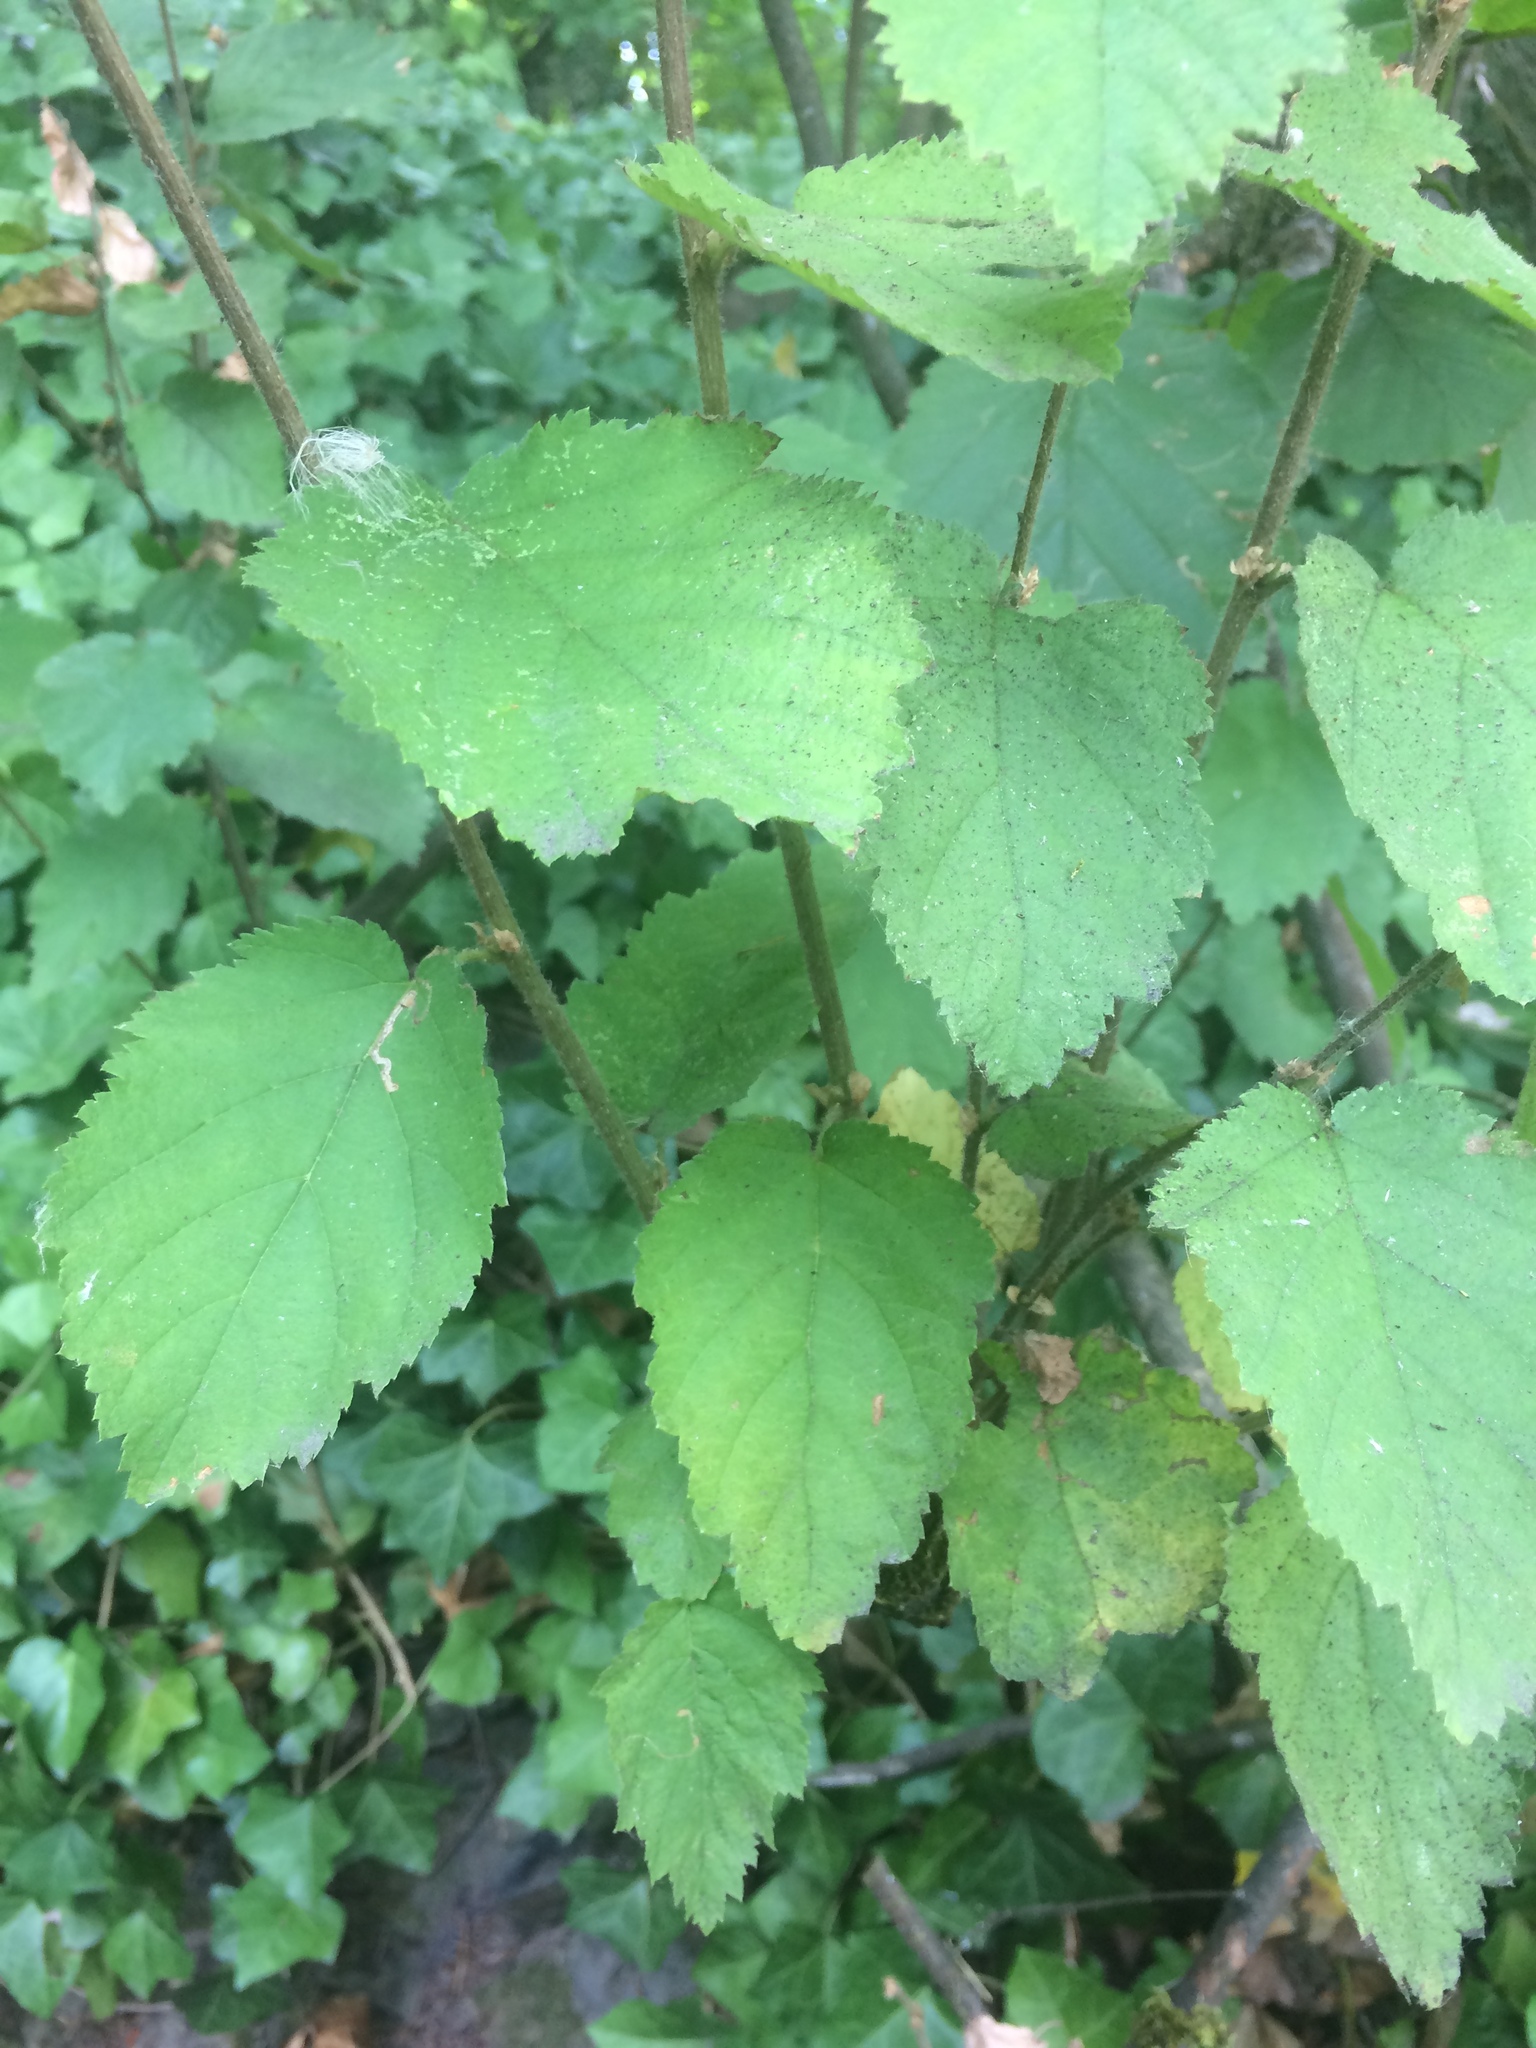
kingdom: Plantae
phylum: Tracheophyta
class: Magnoliopsida
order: Rosales
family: Rosaceae
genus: Holodiscus
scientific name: Holodiscus discolor
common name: Oceanspray
